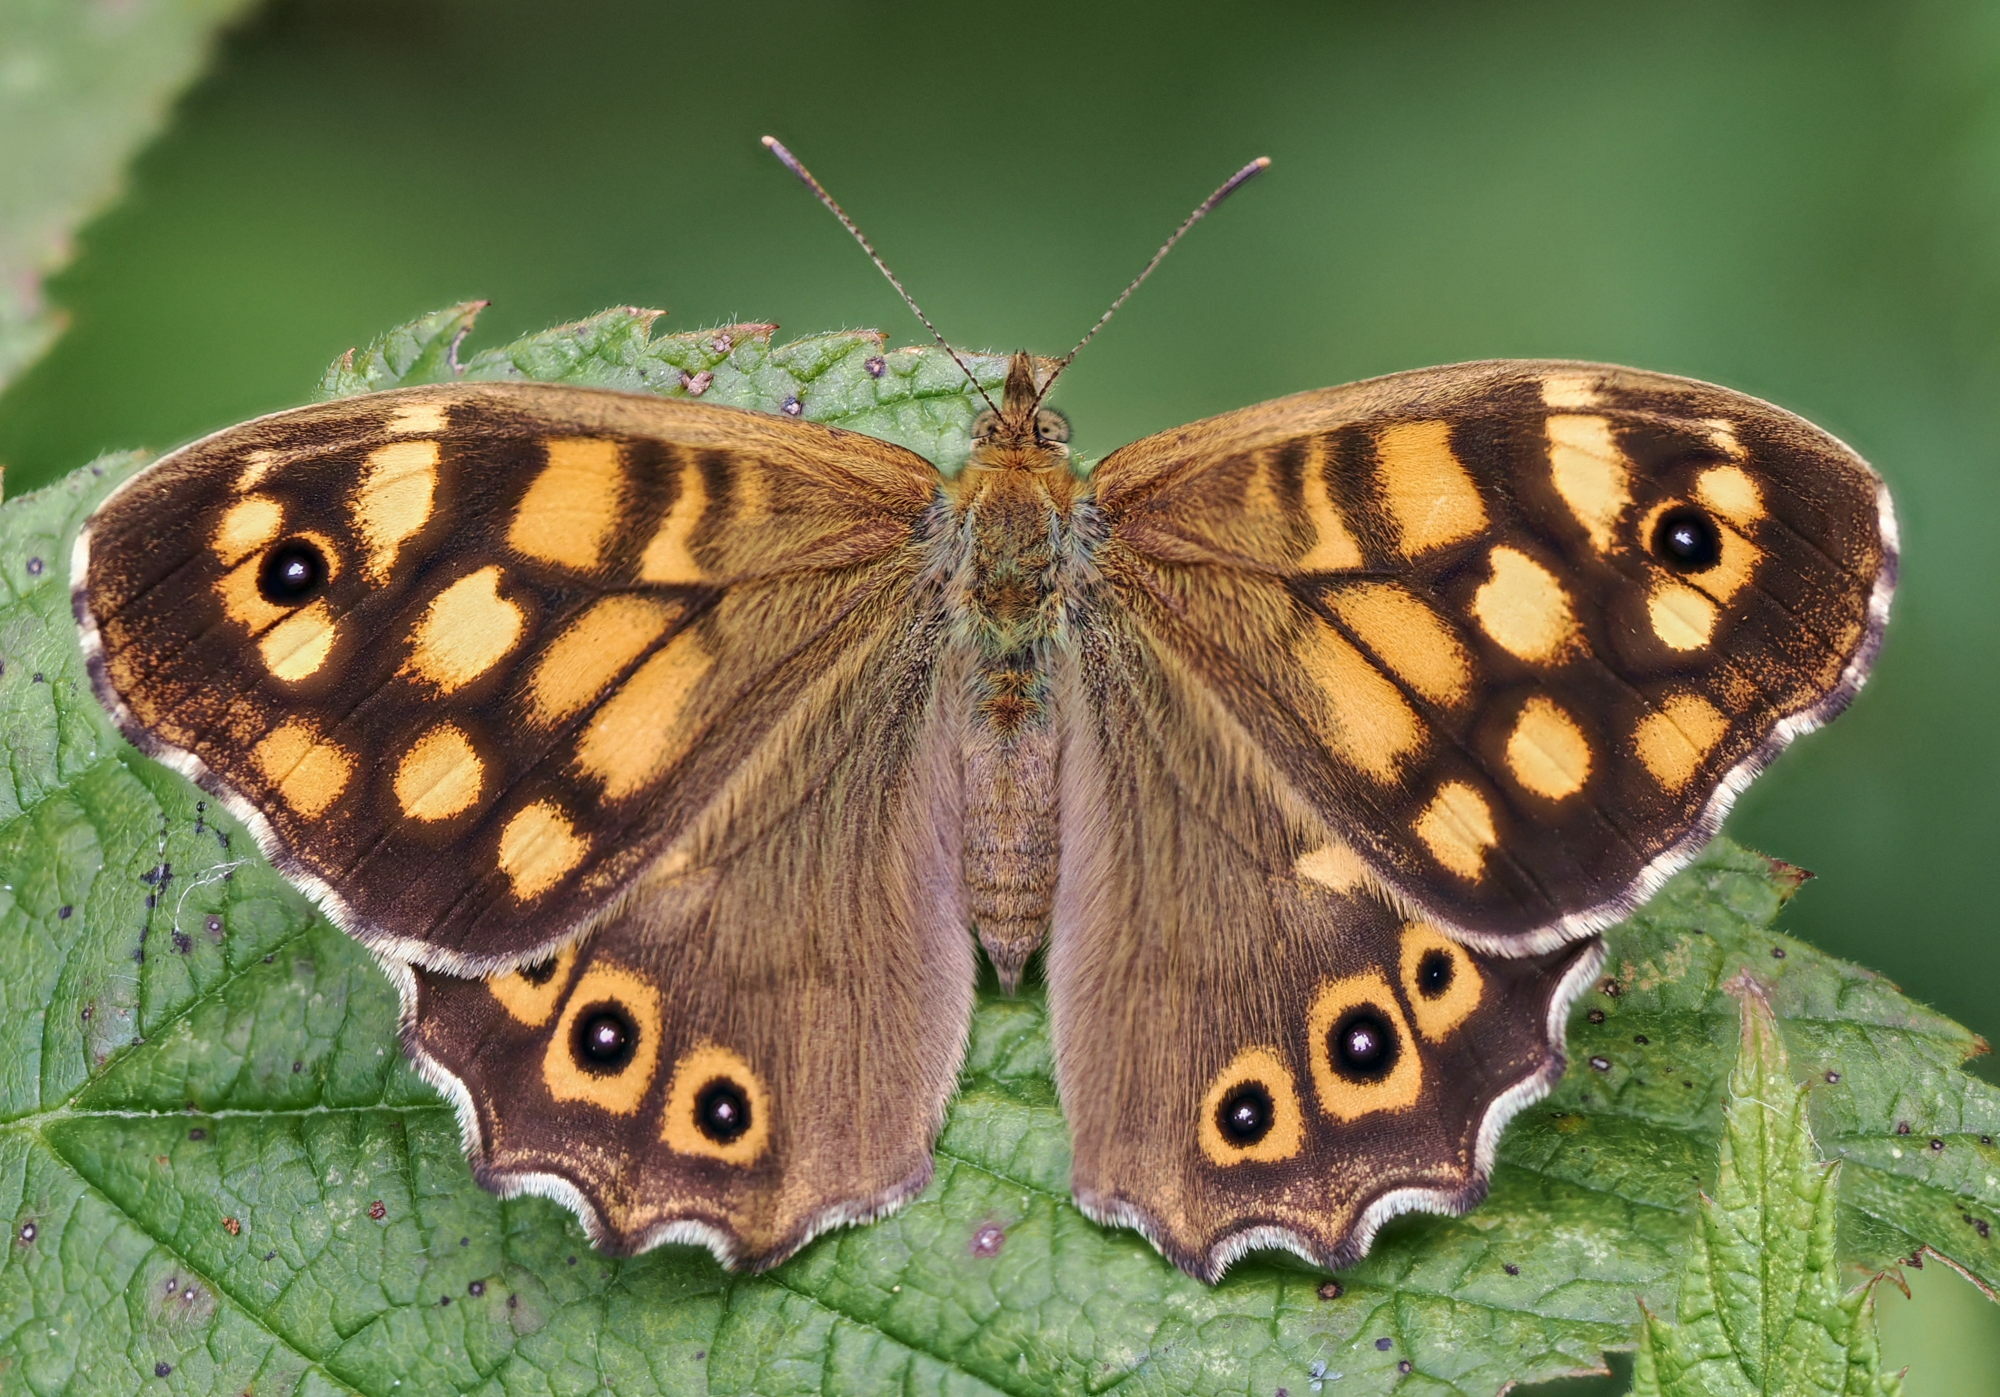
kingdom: Animalia
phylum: Arthropoda
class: Insecta
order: Lepidoptera
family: Nymphalidae
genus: Pararge
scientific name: Pararge aegeria
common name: Speckled wood
